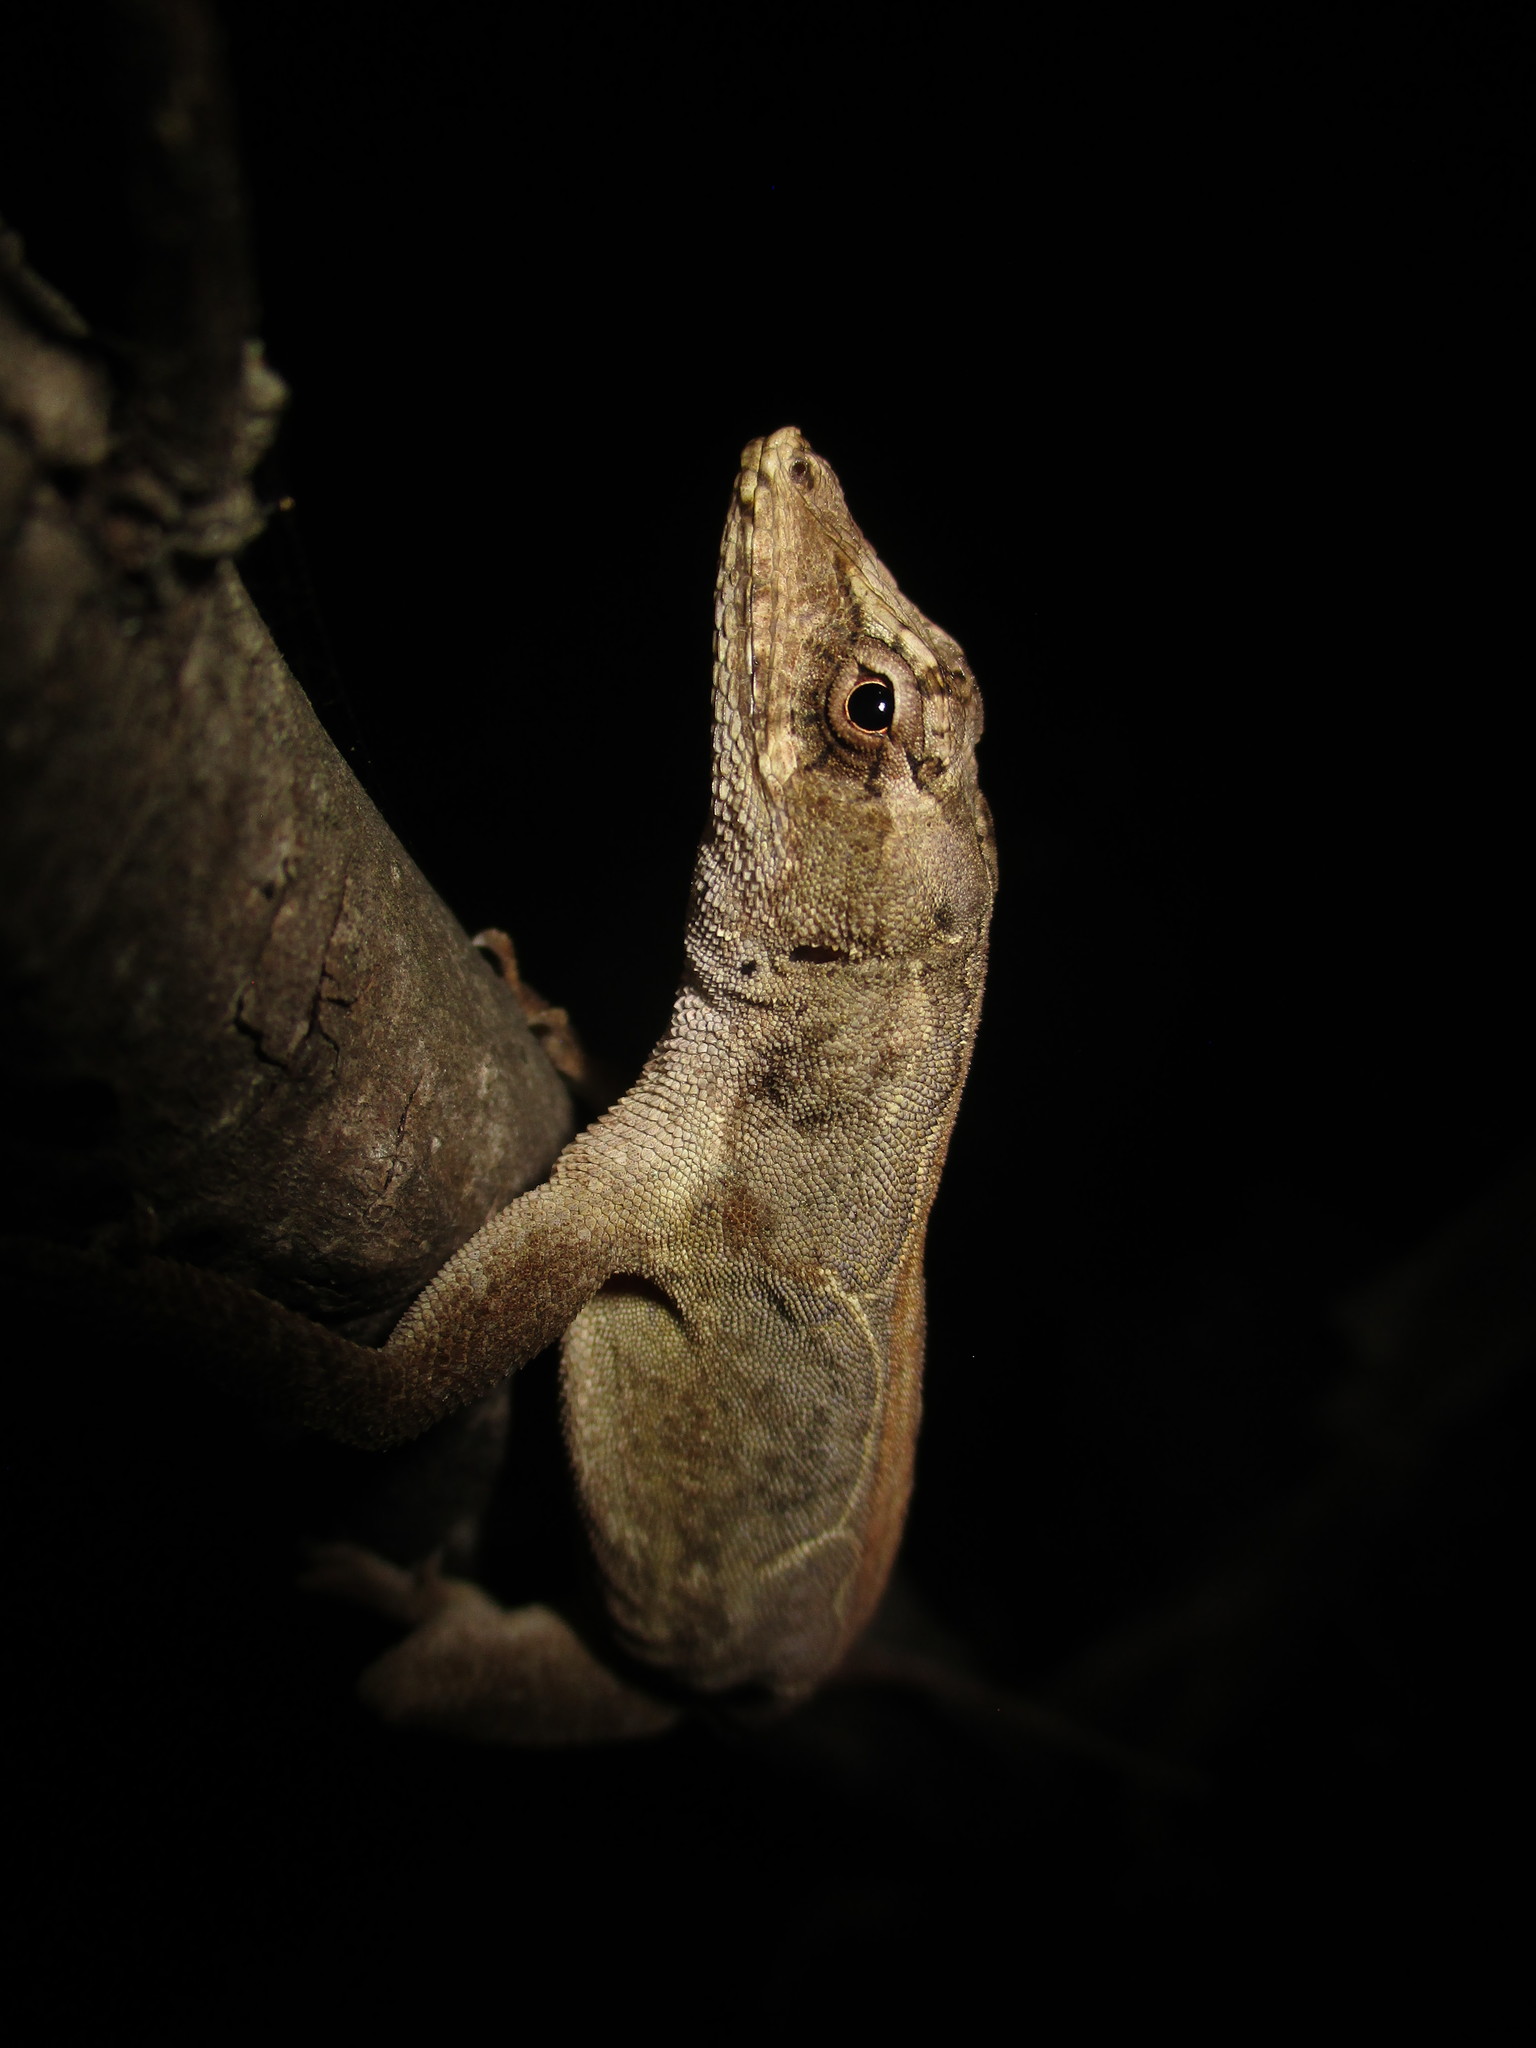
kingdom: Animalia
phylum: Chordata
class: Squamata
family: Dactyloidae
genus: Anolis
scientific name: Anolis lemurinus
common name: Ghost anole
